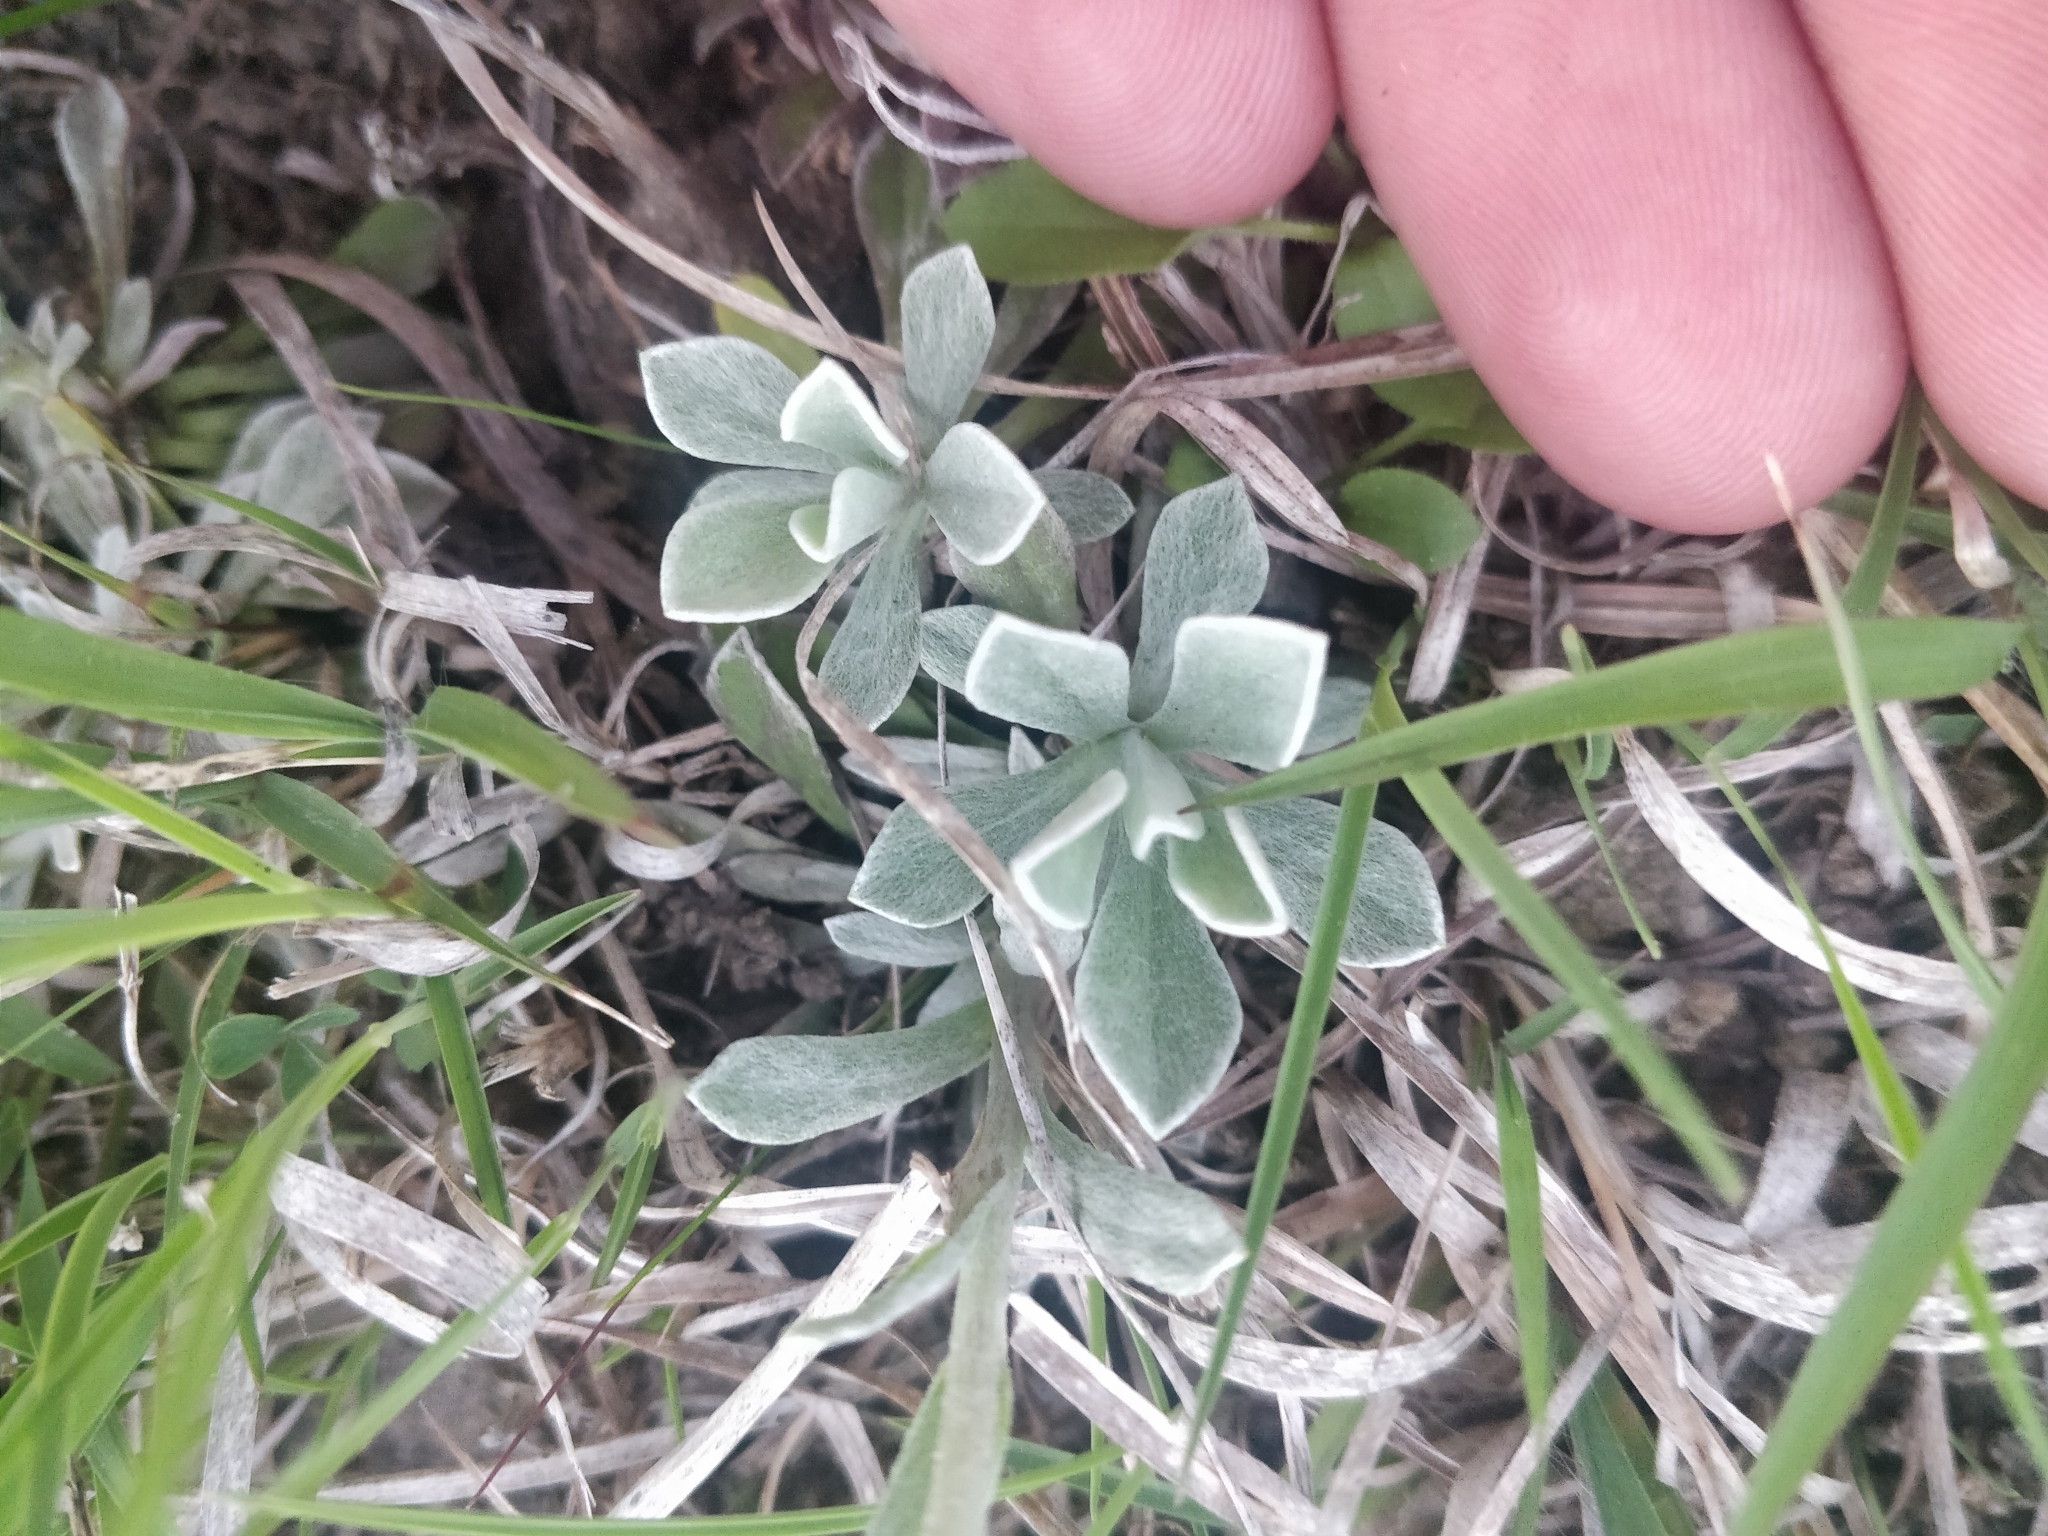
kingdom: Plantae
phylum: Tracheophyta
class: Magnoliopsida
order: Asterales
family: Asteraceae
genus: Antennaria
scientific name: Antennaria parvifolia
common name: Nuttall's pussytoes
